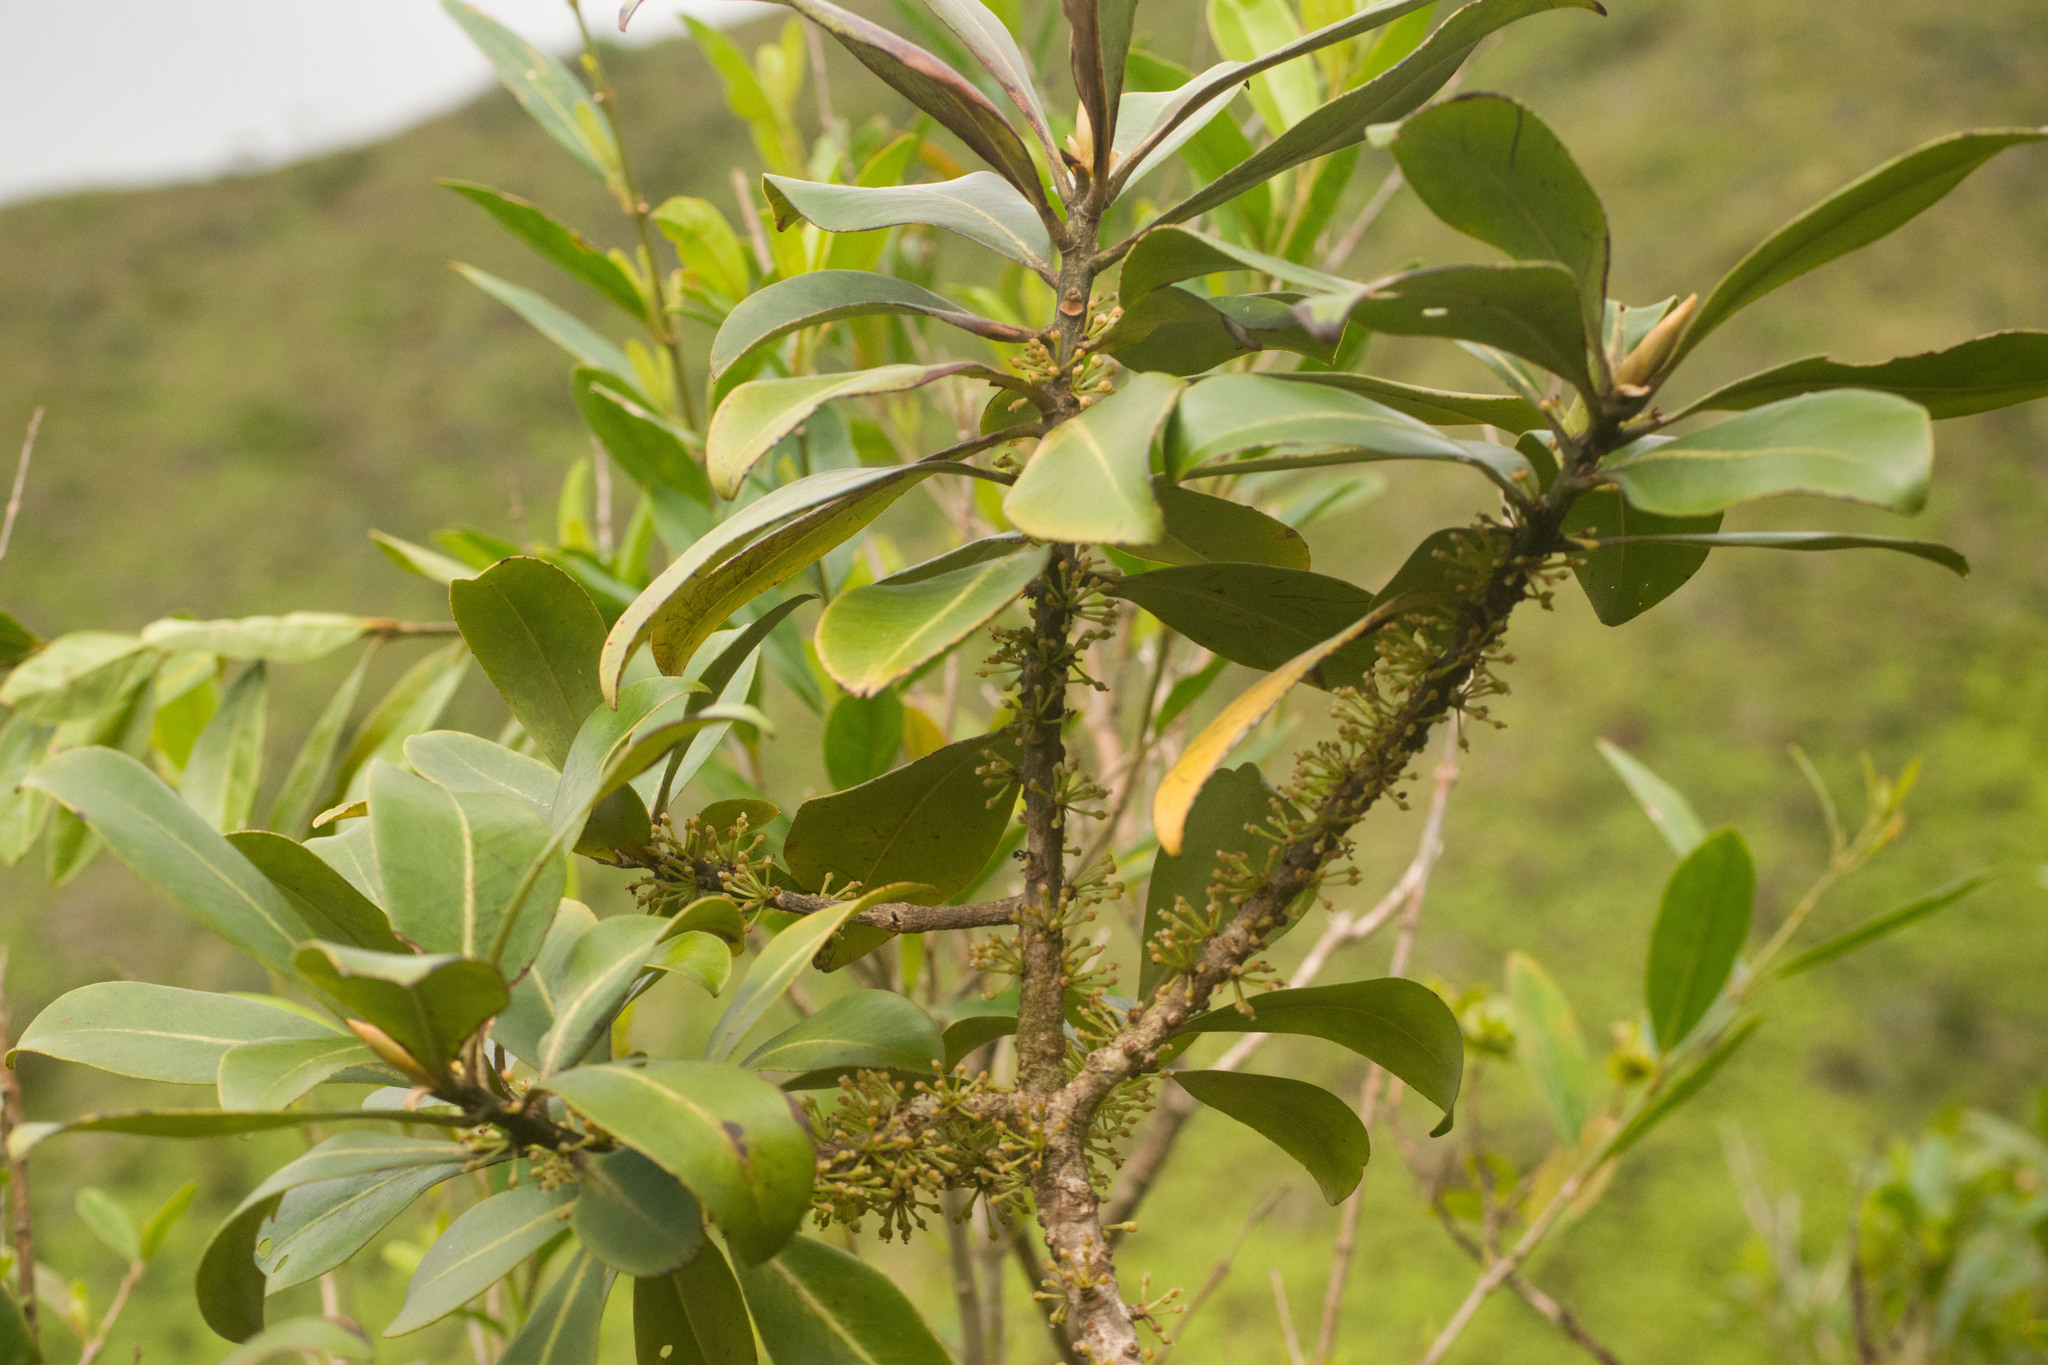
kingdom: Plantae
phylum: Tracheophyta
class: Magnoliopsida
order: Ericales
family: Primulaceae
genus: Myrsine
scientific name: Myrsine lessertiana
